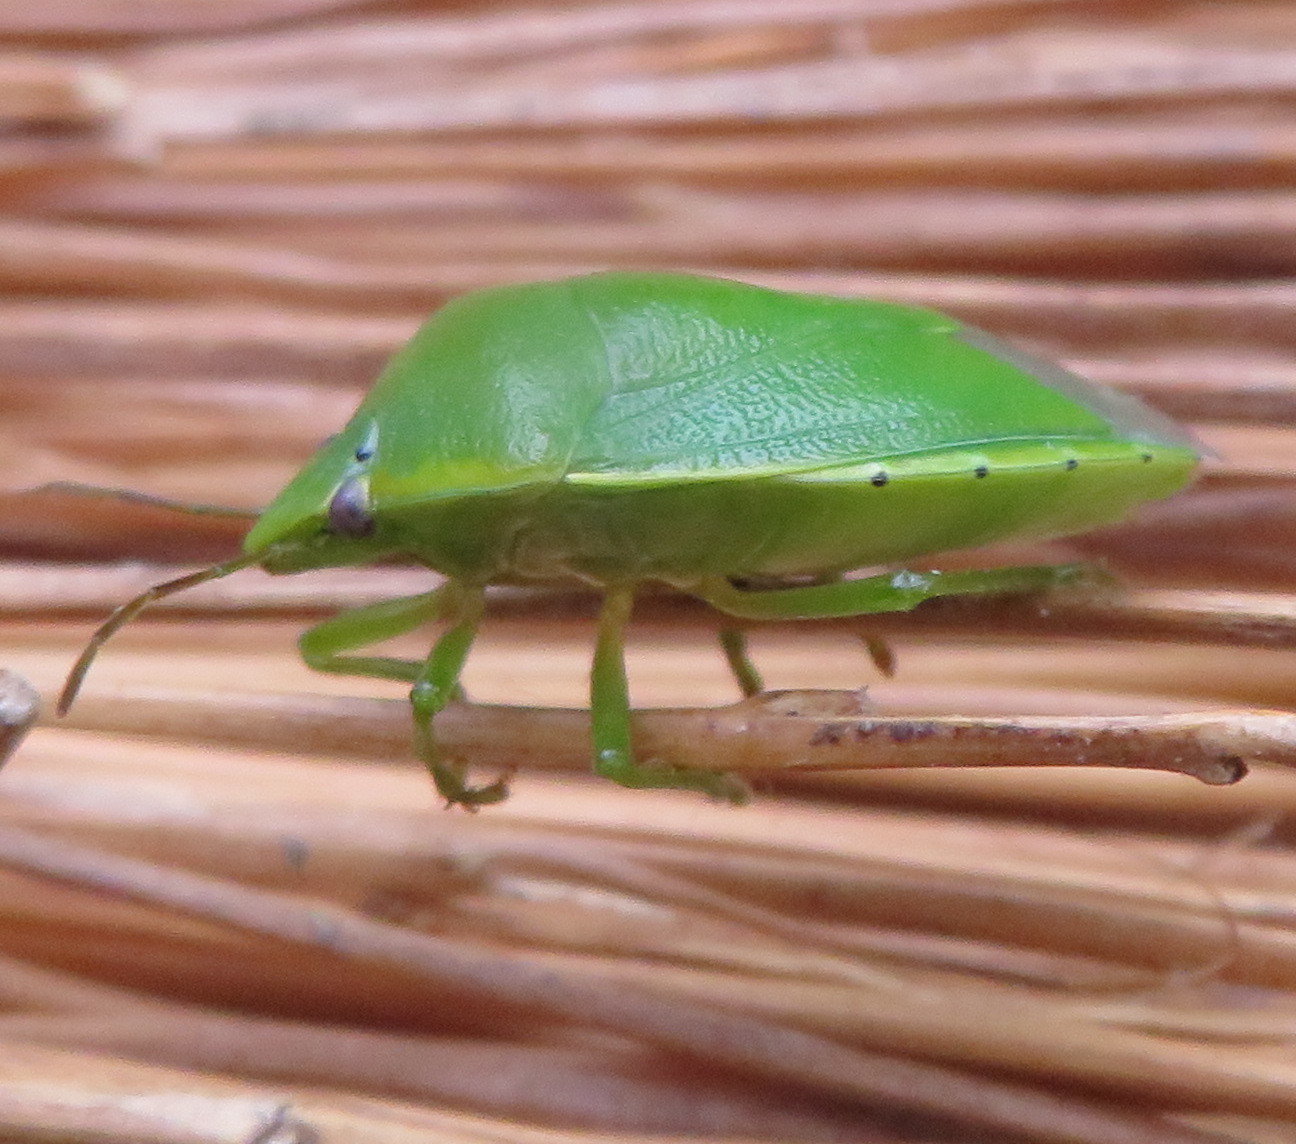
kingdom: Animalia
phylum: Arthropoda
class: Insecta
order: Hemiptera
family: Pentatomidae
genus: Glaucias
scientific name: Glaucias amyota
